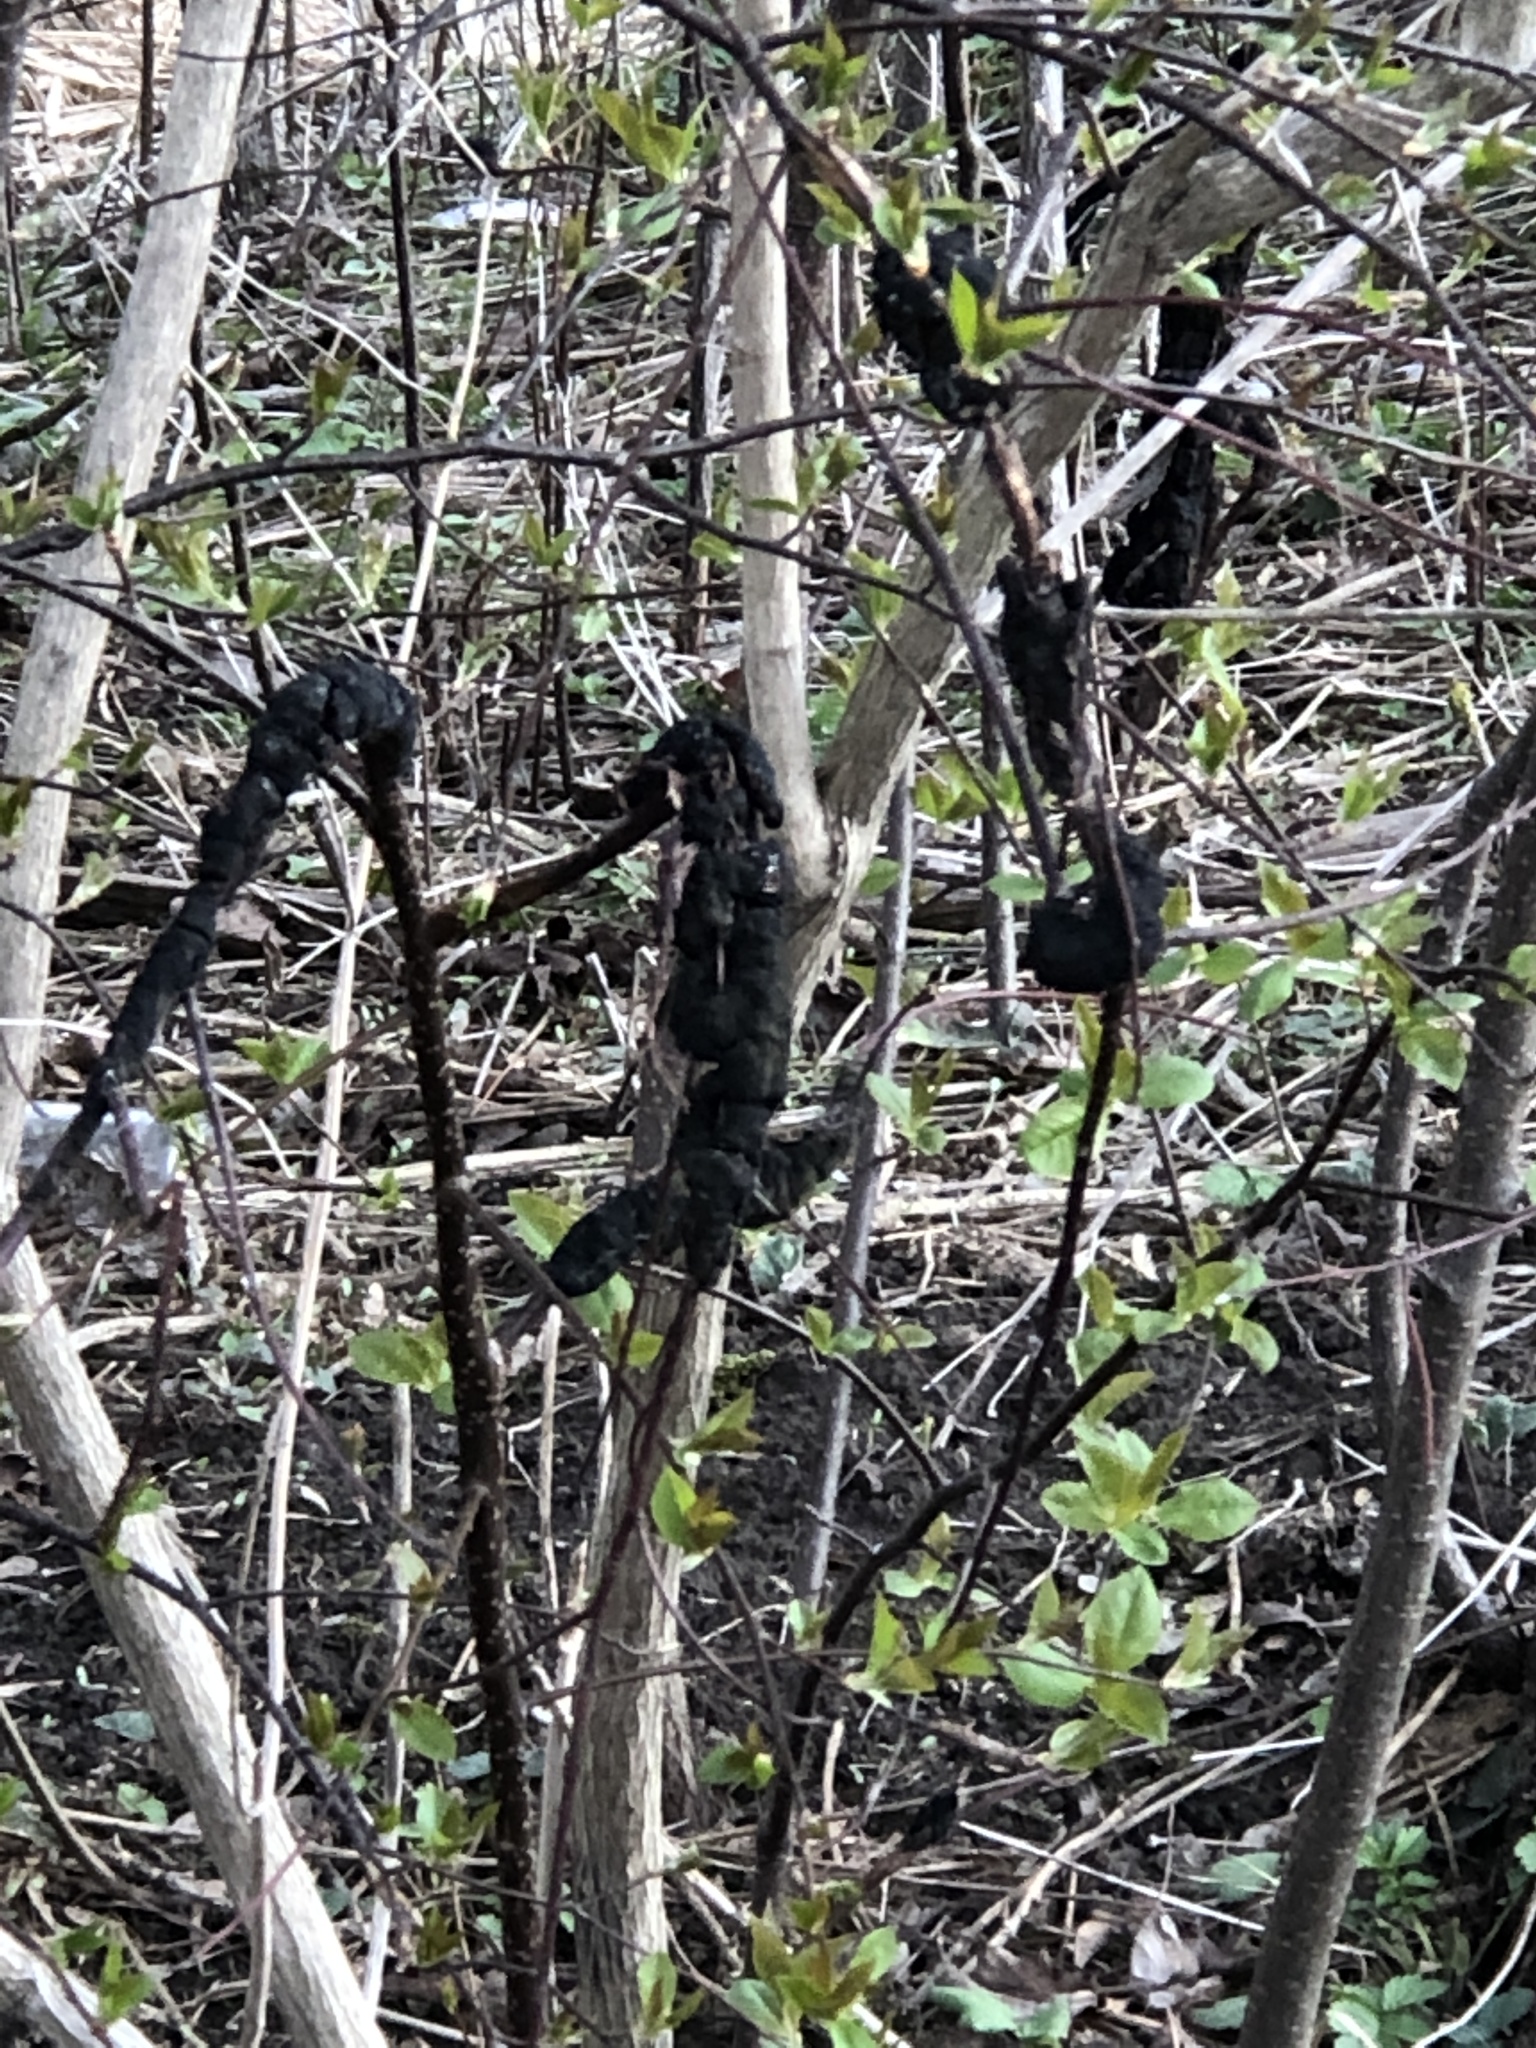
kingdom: Fungi
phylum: Ascomycota
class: Dothideomycetes
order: Venturiales
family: Venturiaceae
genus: Apiosporina
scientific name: Apiosporina morbosa
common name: Black knot
